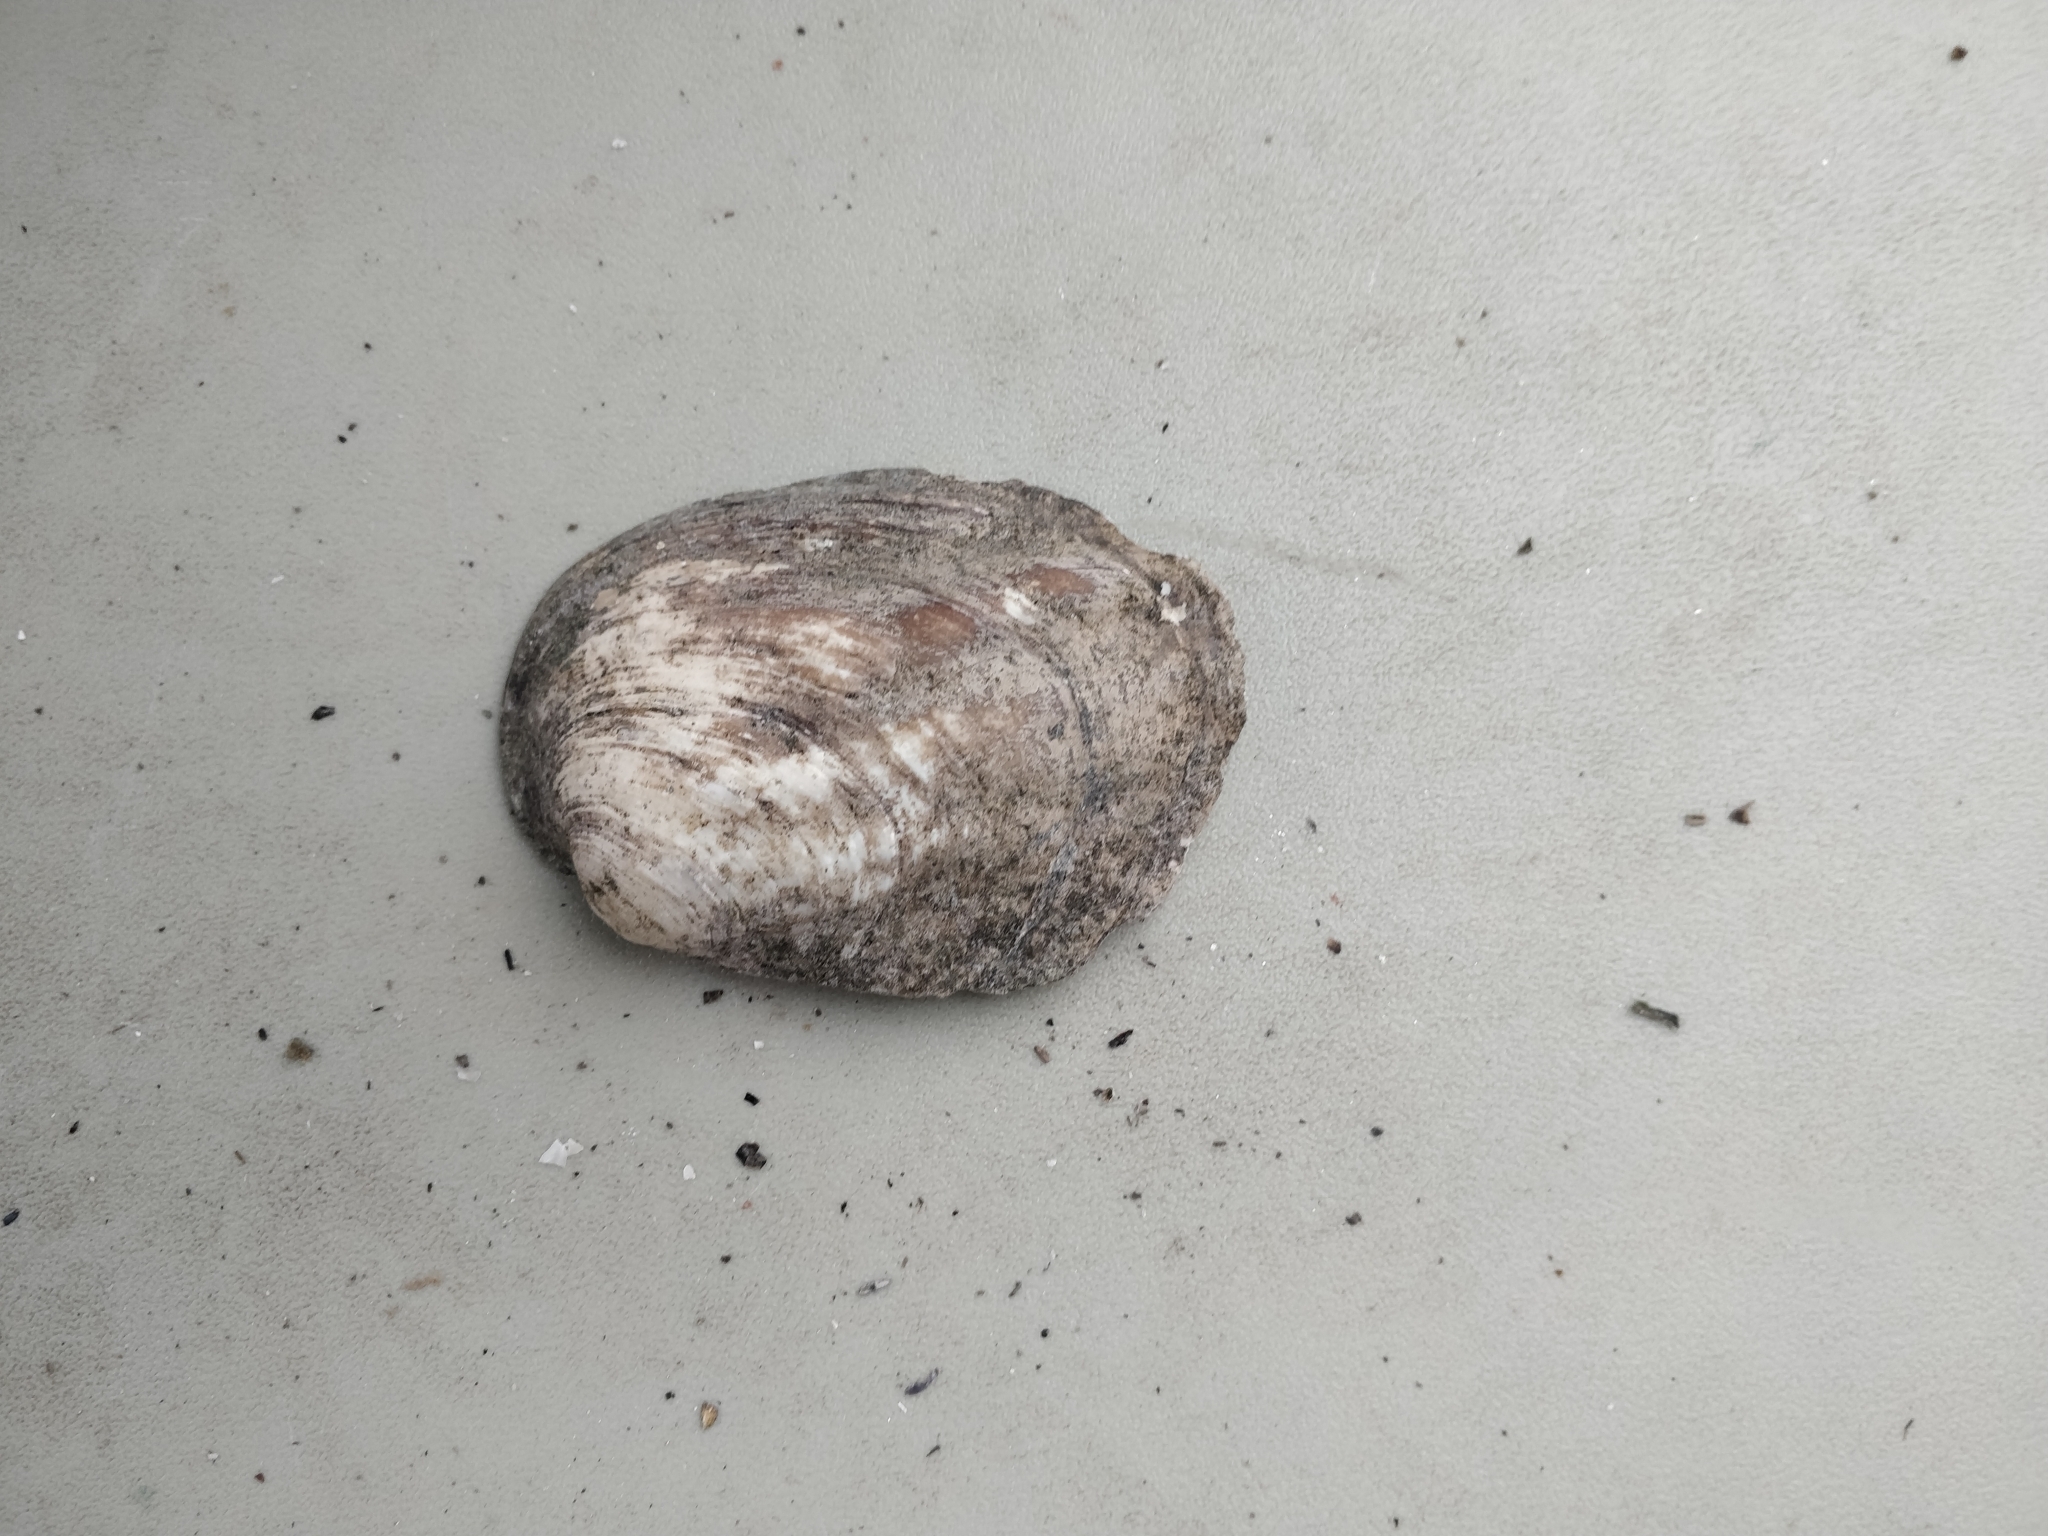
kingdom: Animalia
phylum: Mollusca
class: Bivalvia
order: Unionida
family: Unionidae
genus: Amblema
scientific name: Amblema plicata
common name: Threeridge
